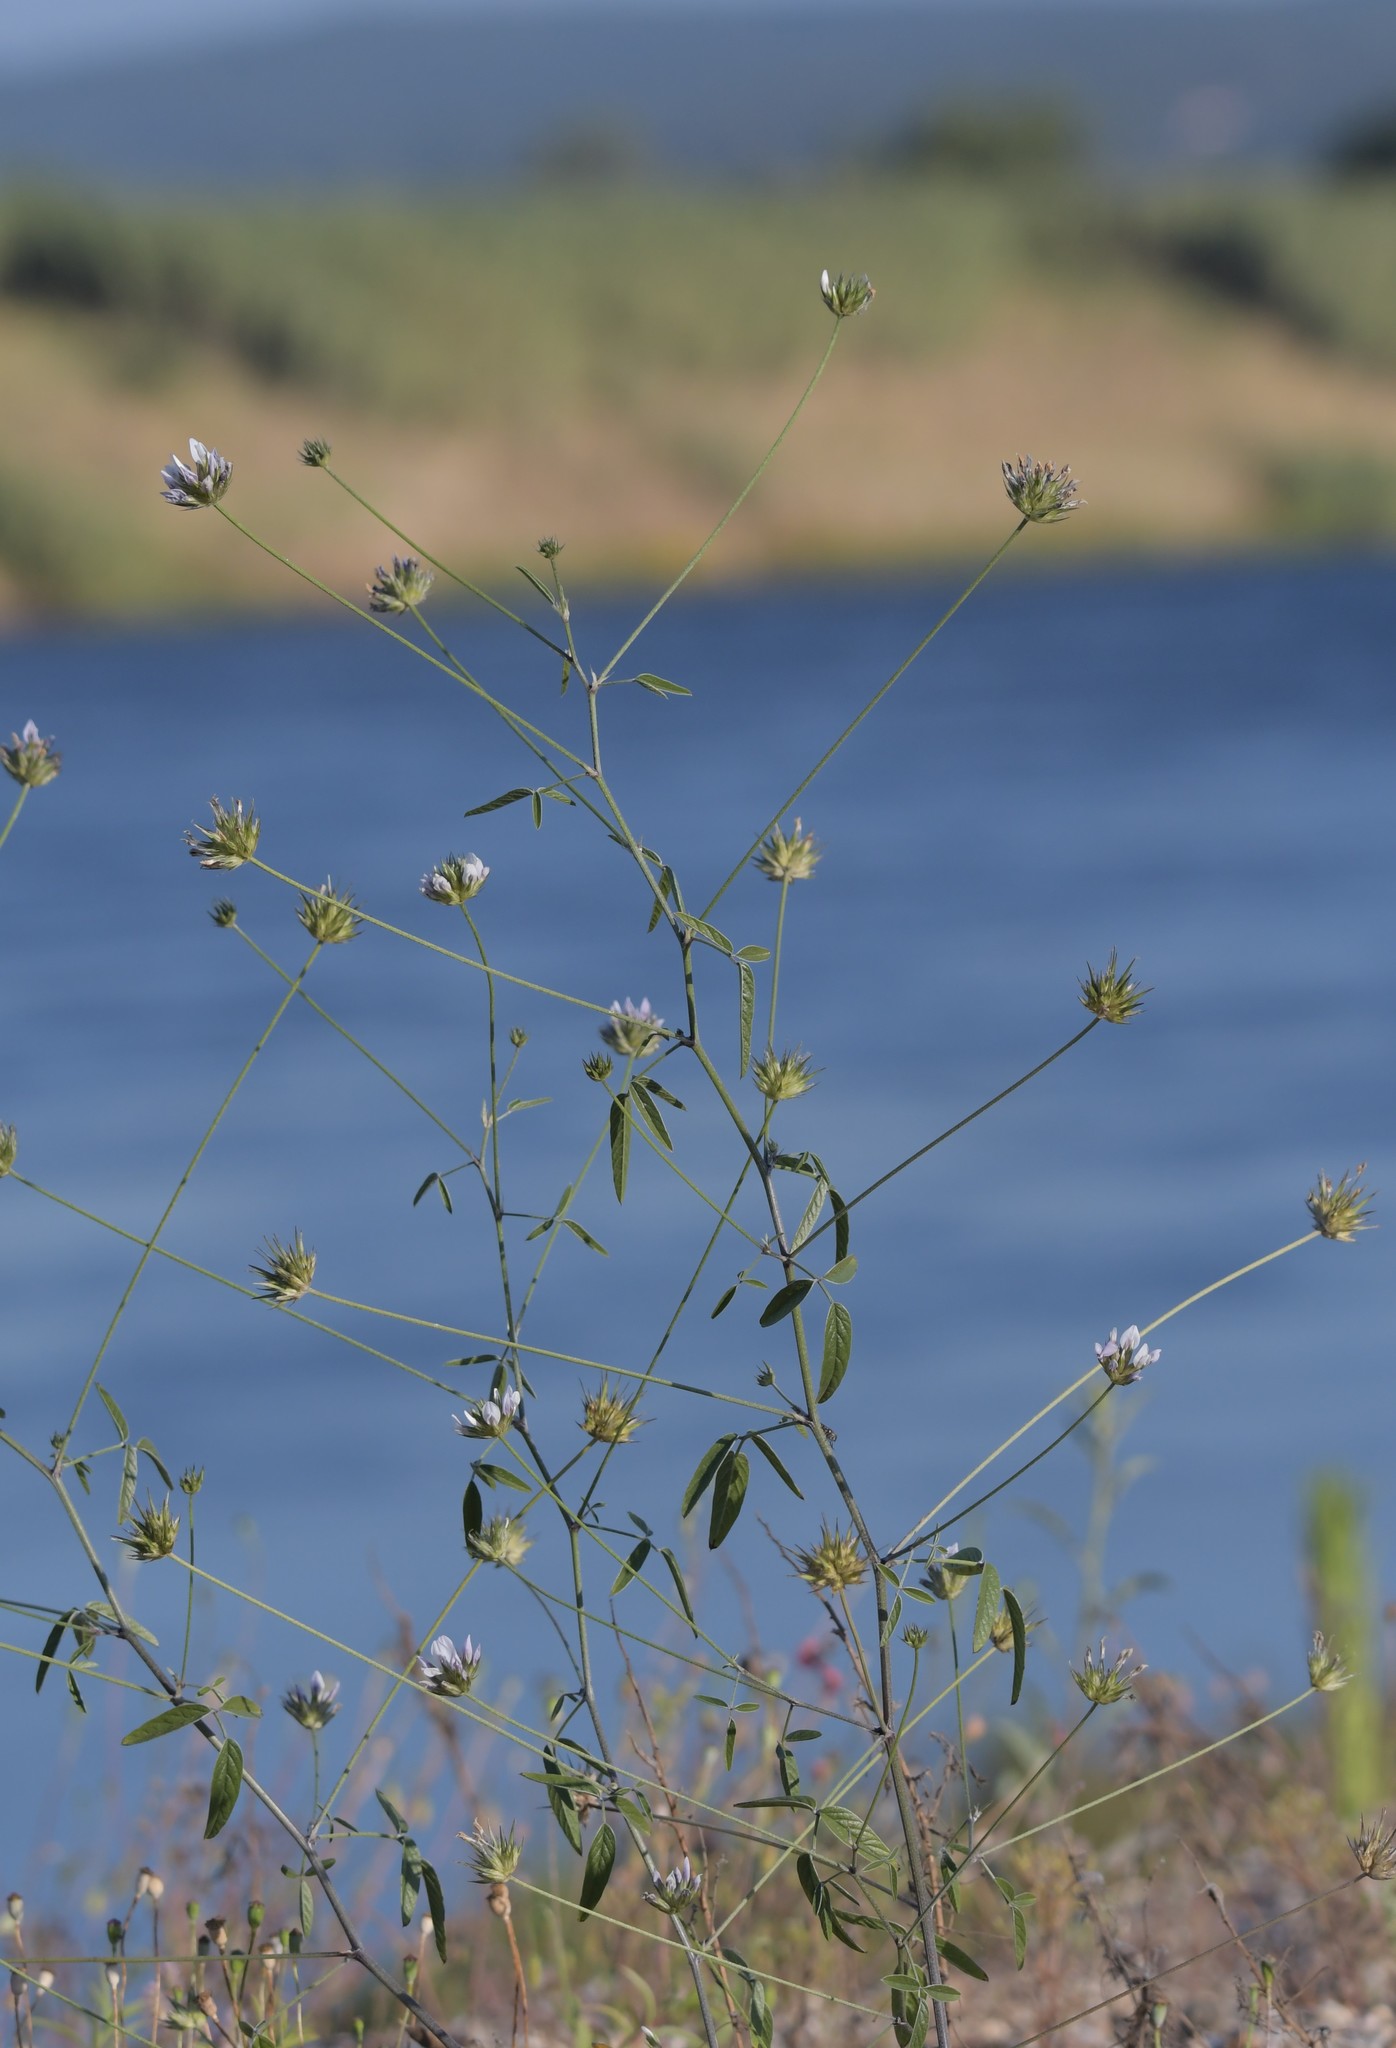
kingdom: Plantae
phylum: Tracheophyta
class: Magnoliopsida
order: Fabales
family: Fabaceae
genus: Bituminaria
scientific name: Bituminaria bituminosa
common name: Arabian pea
